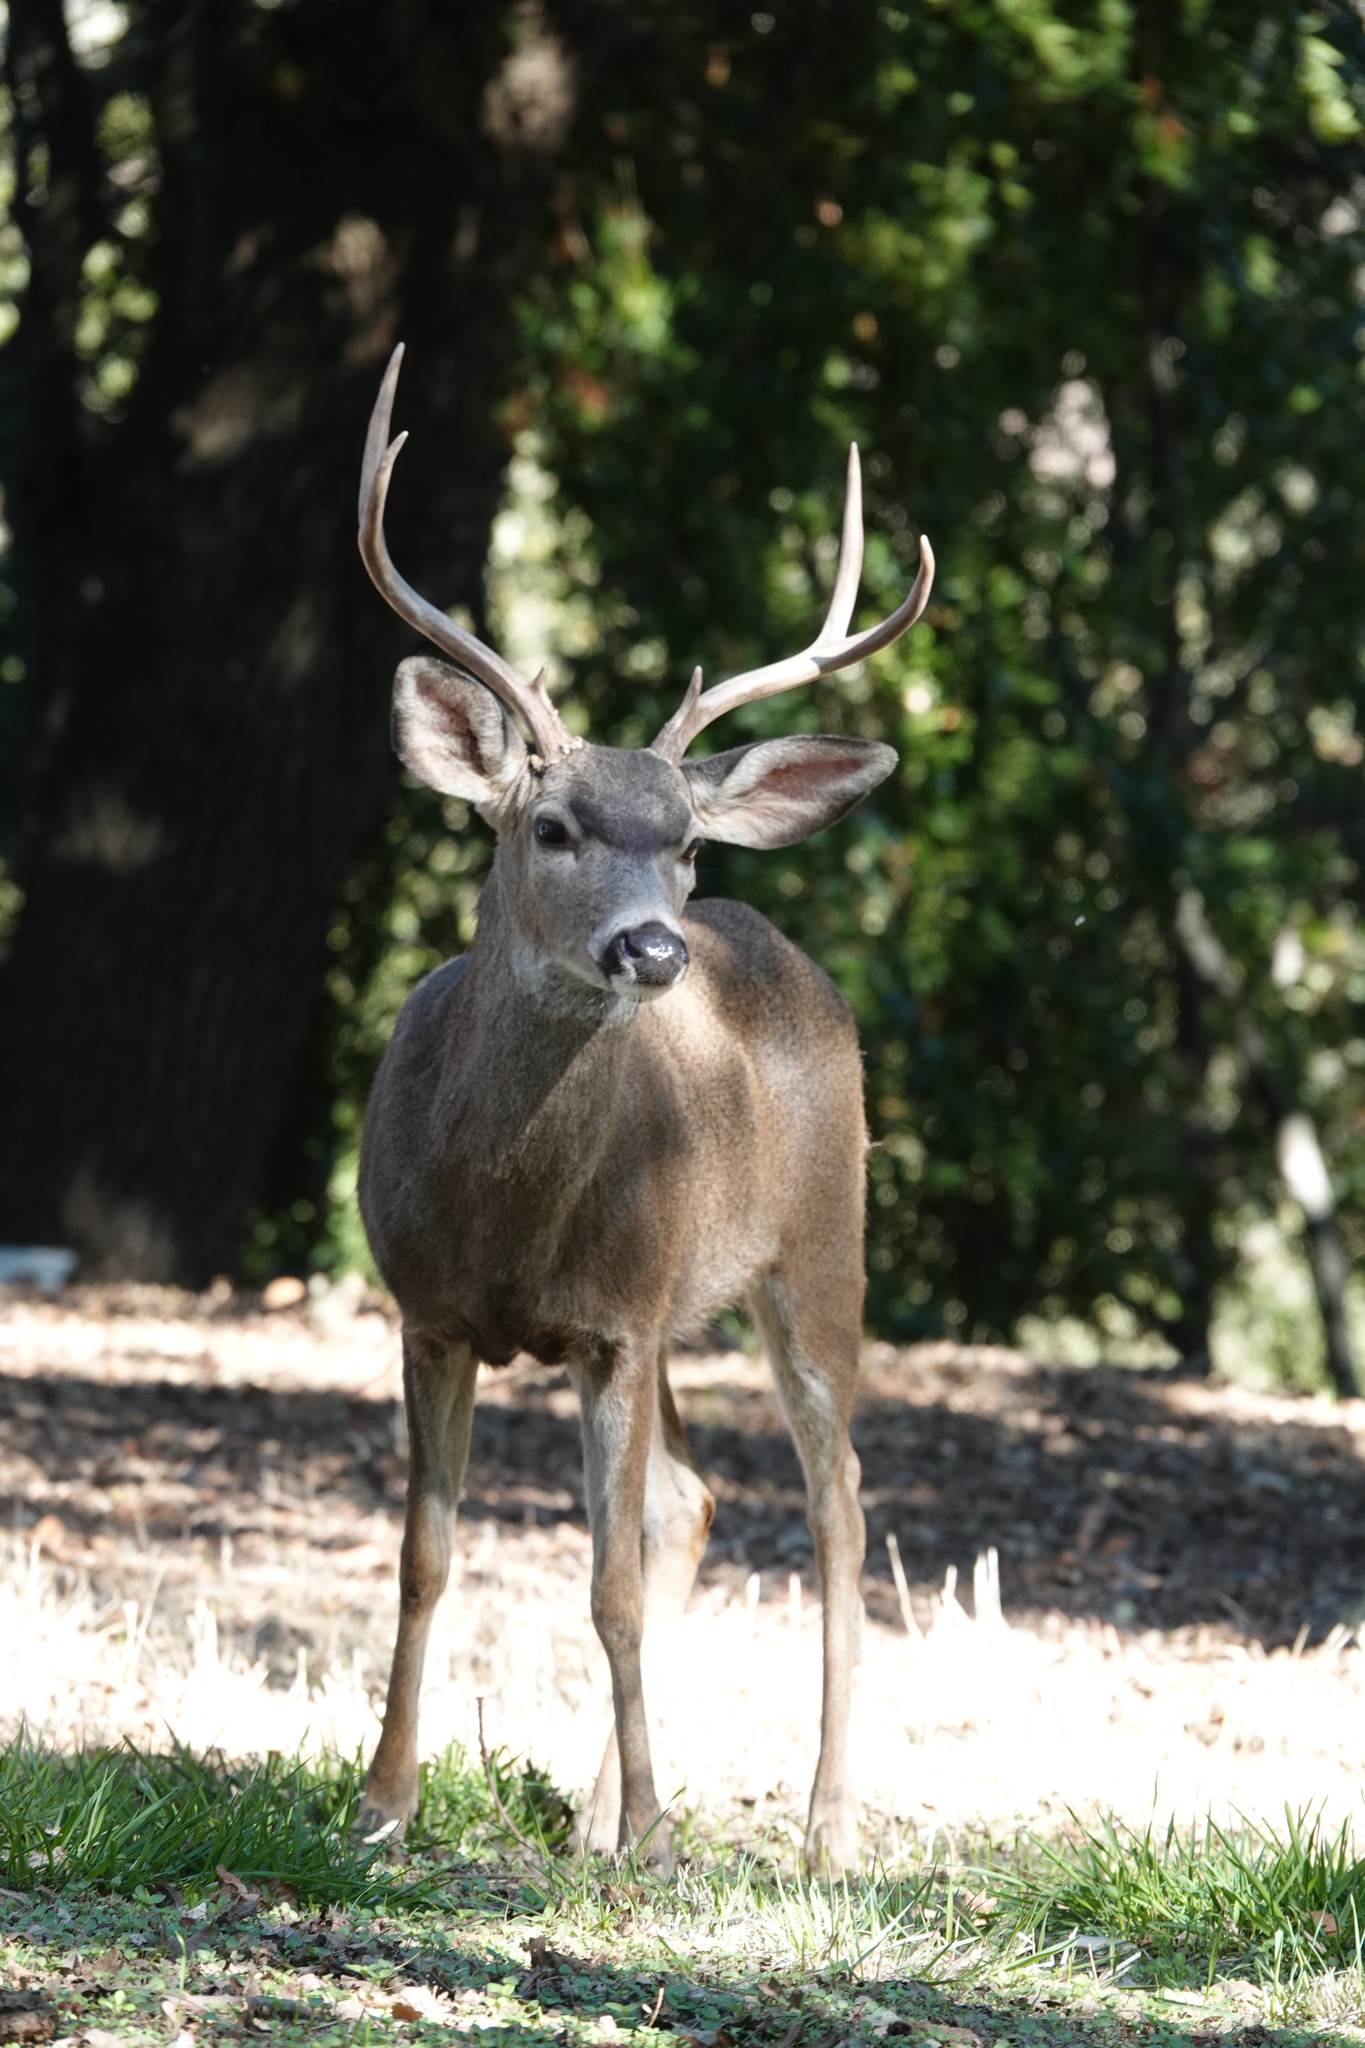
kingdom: Animalia
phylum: Chordata
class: Mammalia
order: Artiodactyla
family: Cervidae
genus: Odocoileus
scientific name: Odocoileus hemionus
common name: Mule deer
